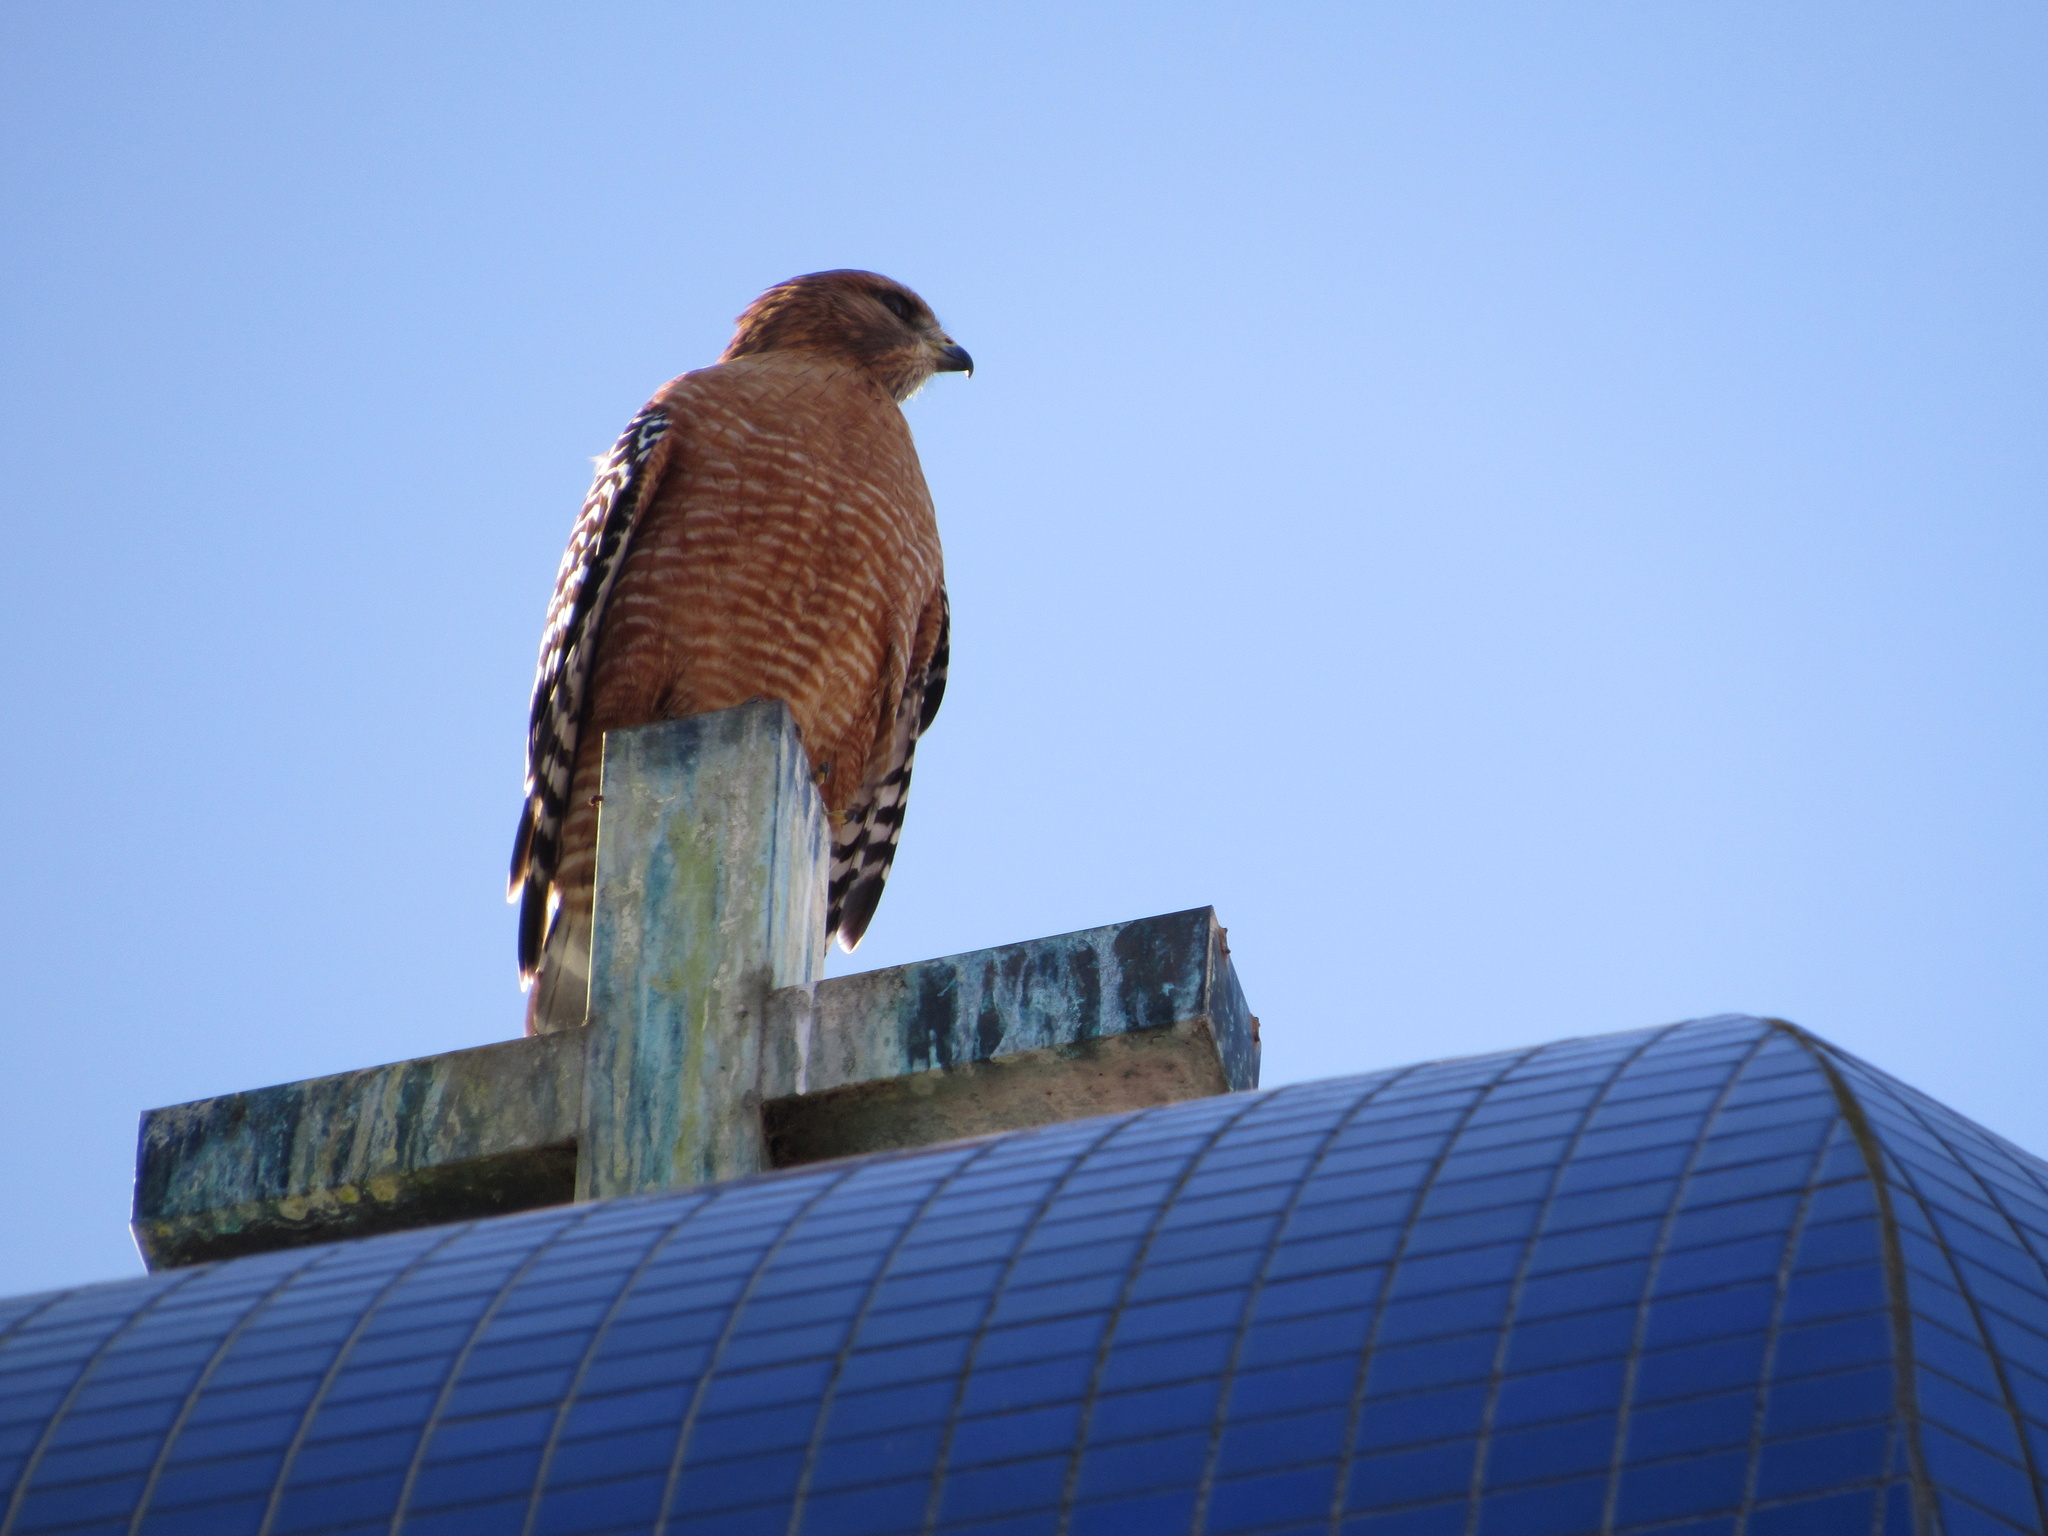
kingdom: Animalia
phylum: Chordata
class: Aves
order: Accipitriformes
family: Accipitridae
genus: Buteo
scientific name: Buteo lineatus
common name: Red-shouldered hawk
